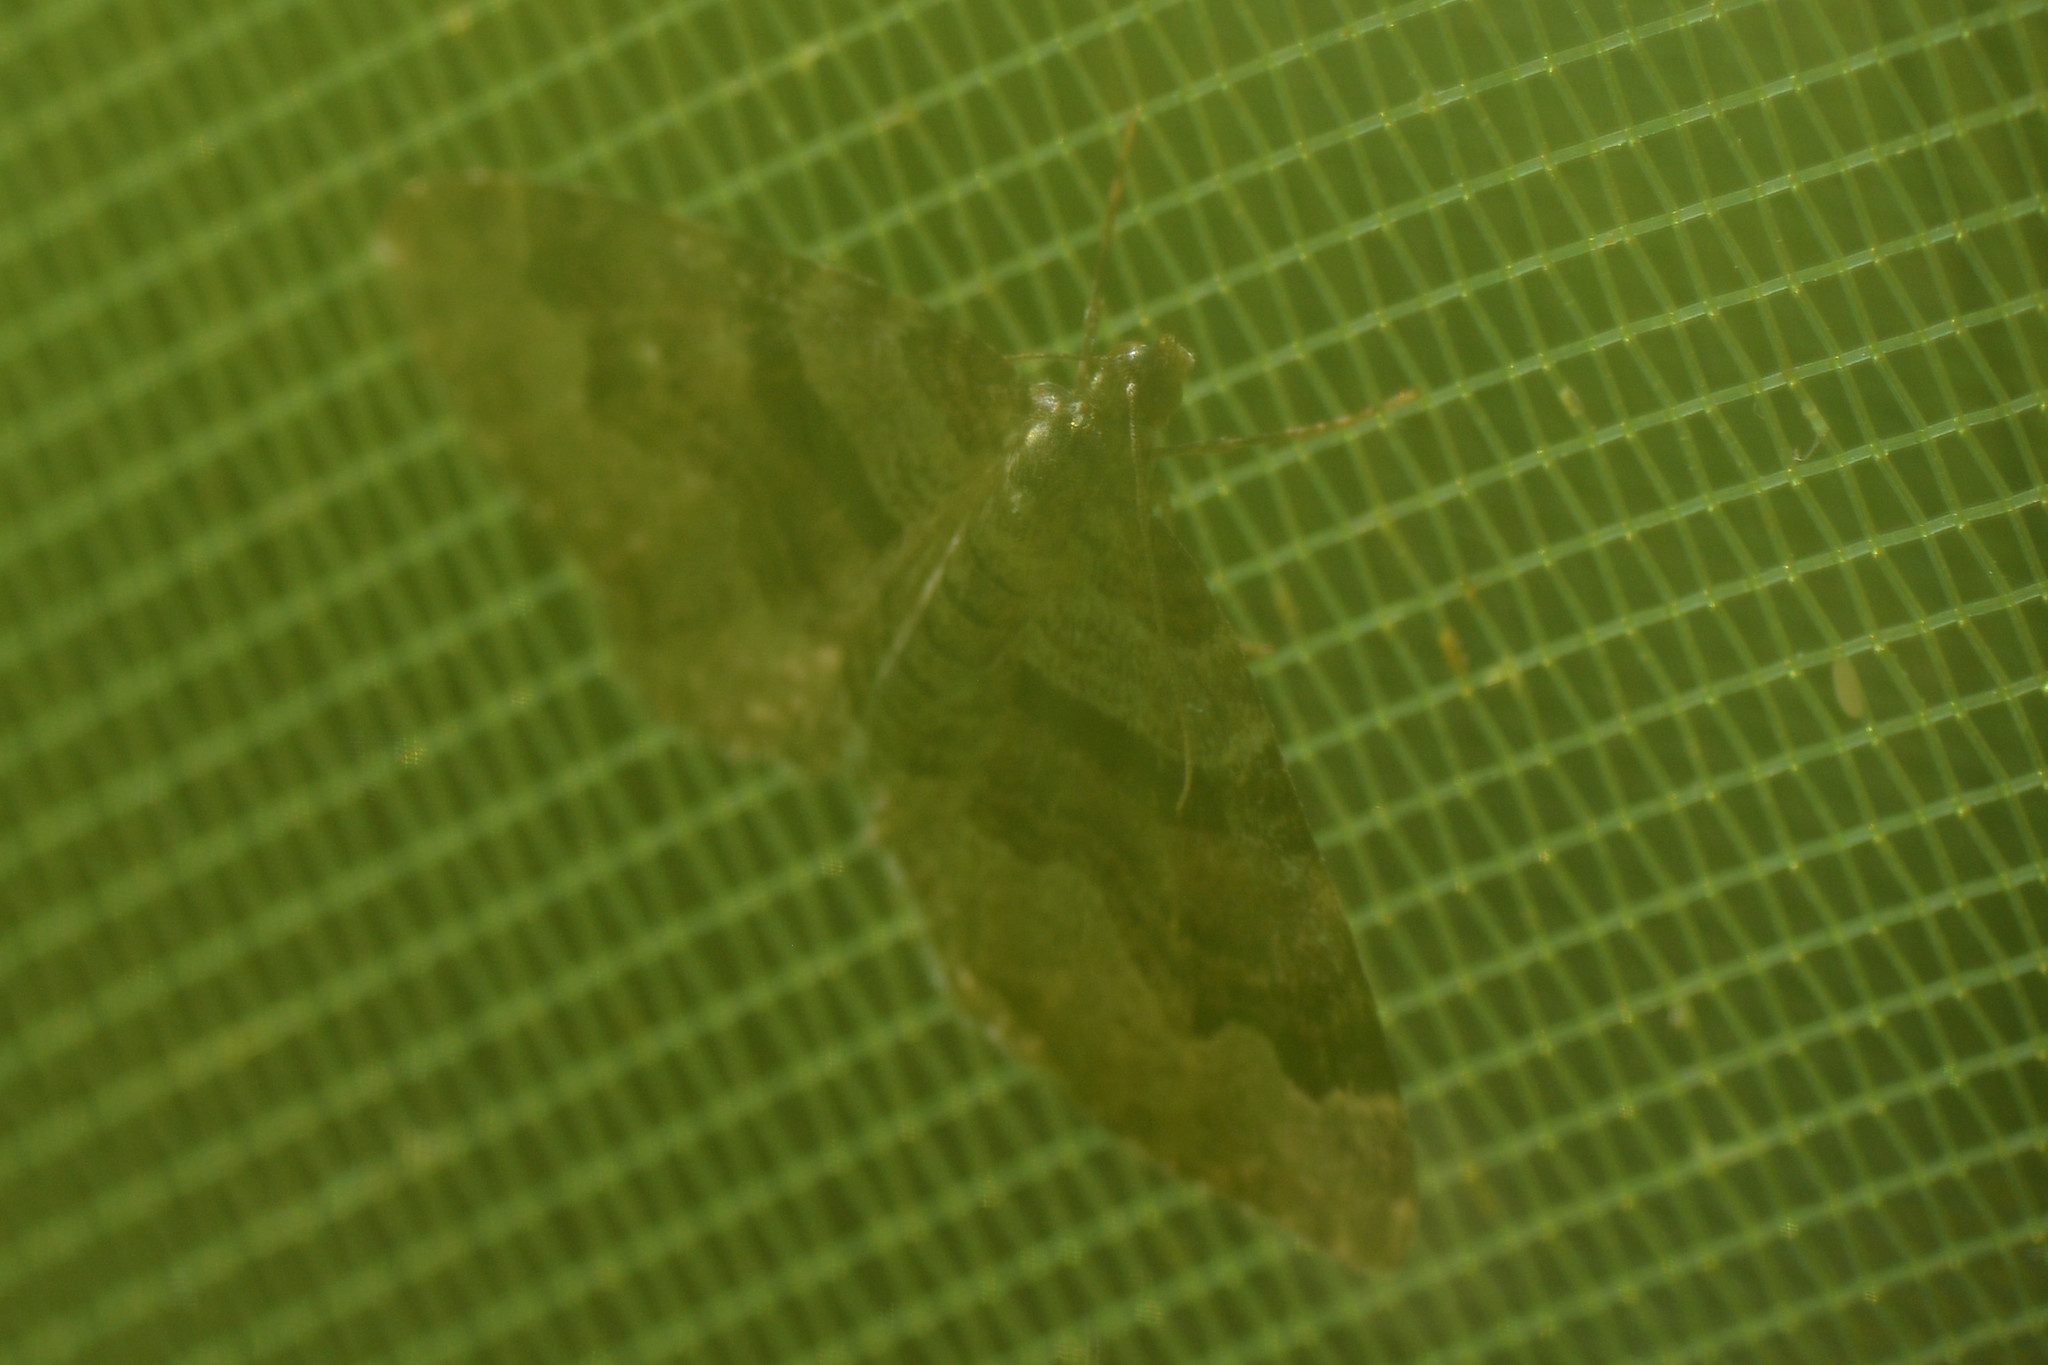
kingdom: Animalia
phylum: Arthropoda
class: Insecta
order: Lepidoptera
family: Geometridae
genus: Xanthorhoe
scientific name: Xanthorhoe designata
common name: Flame carpet
